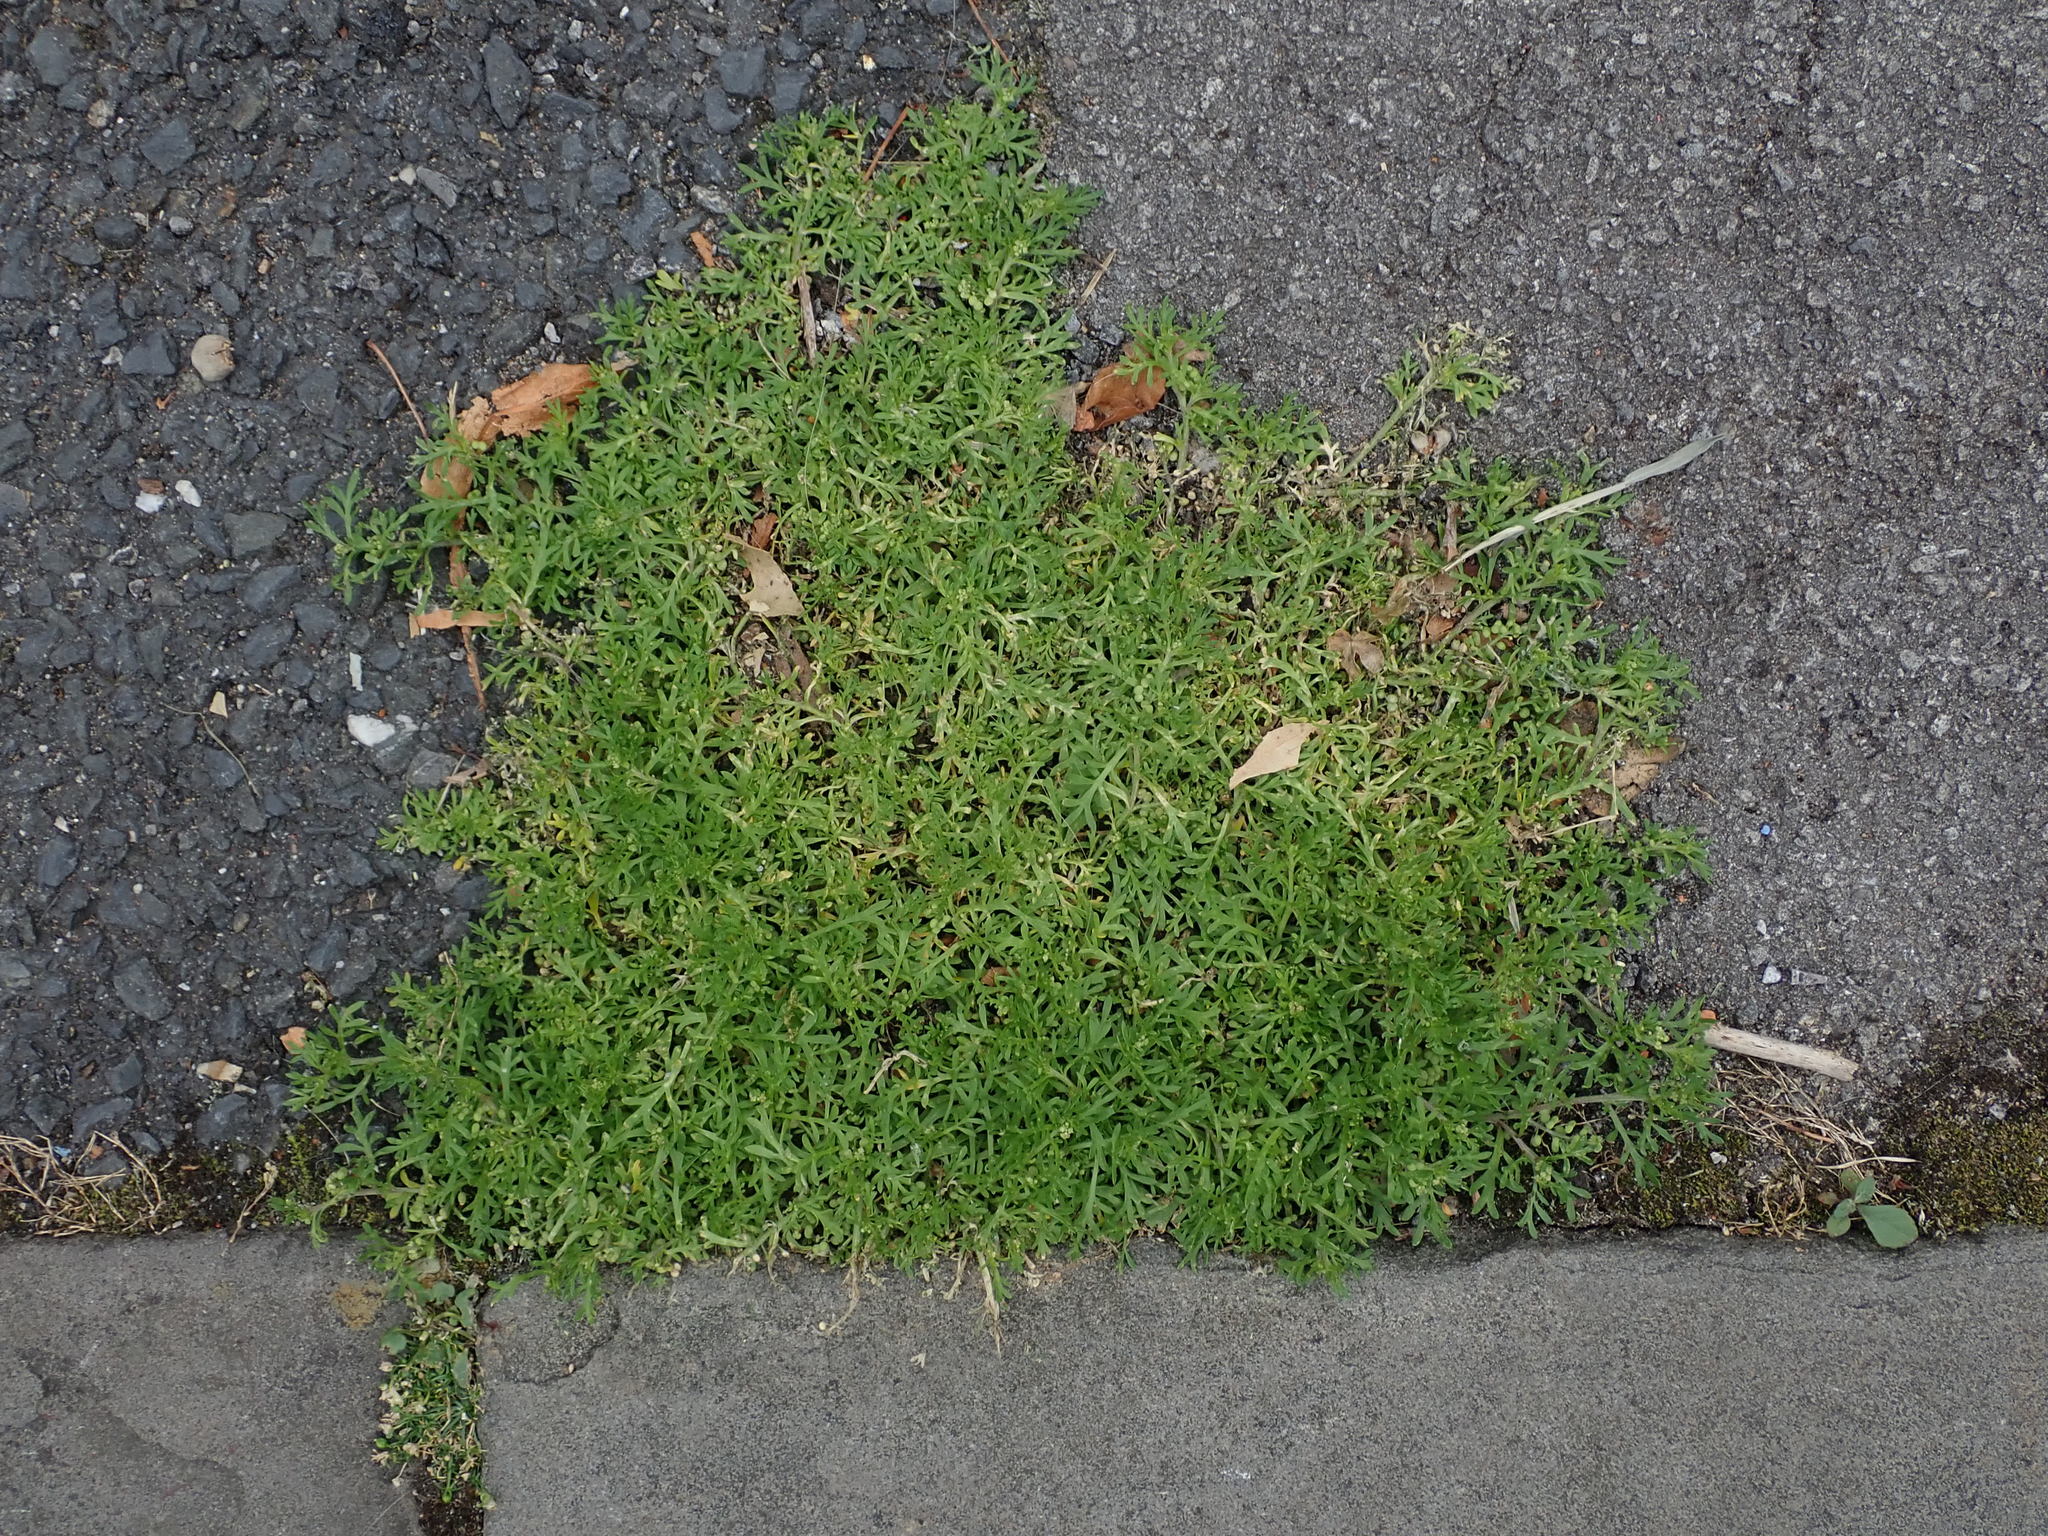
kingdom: Plantae
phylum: Tracheophyta
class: Magnoliopsida
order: Brassicales
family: Brassicaceae
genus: Lepidium
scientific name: Lepidium didymum
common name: Lesser swinecress
